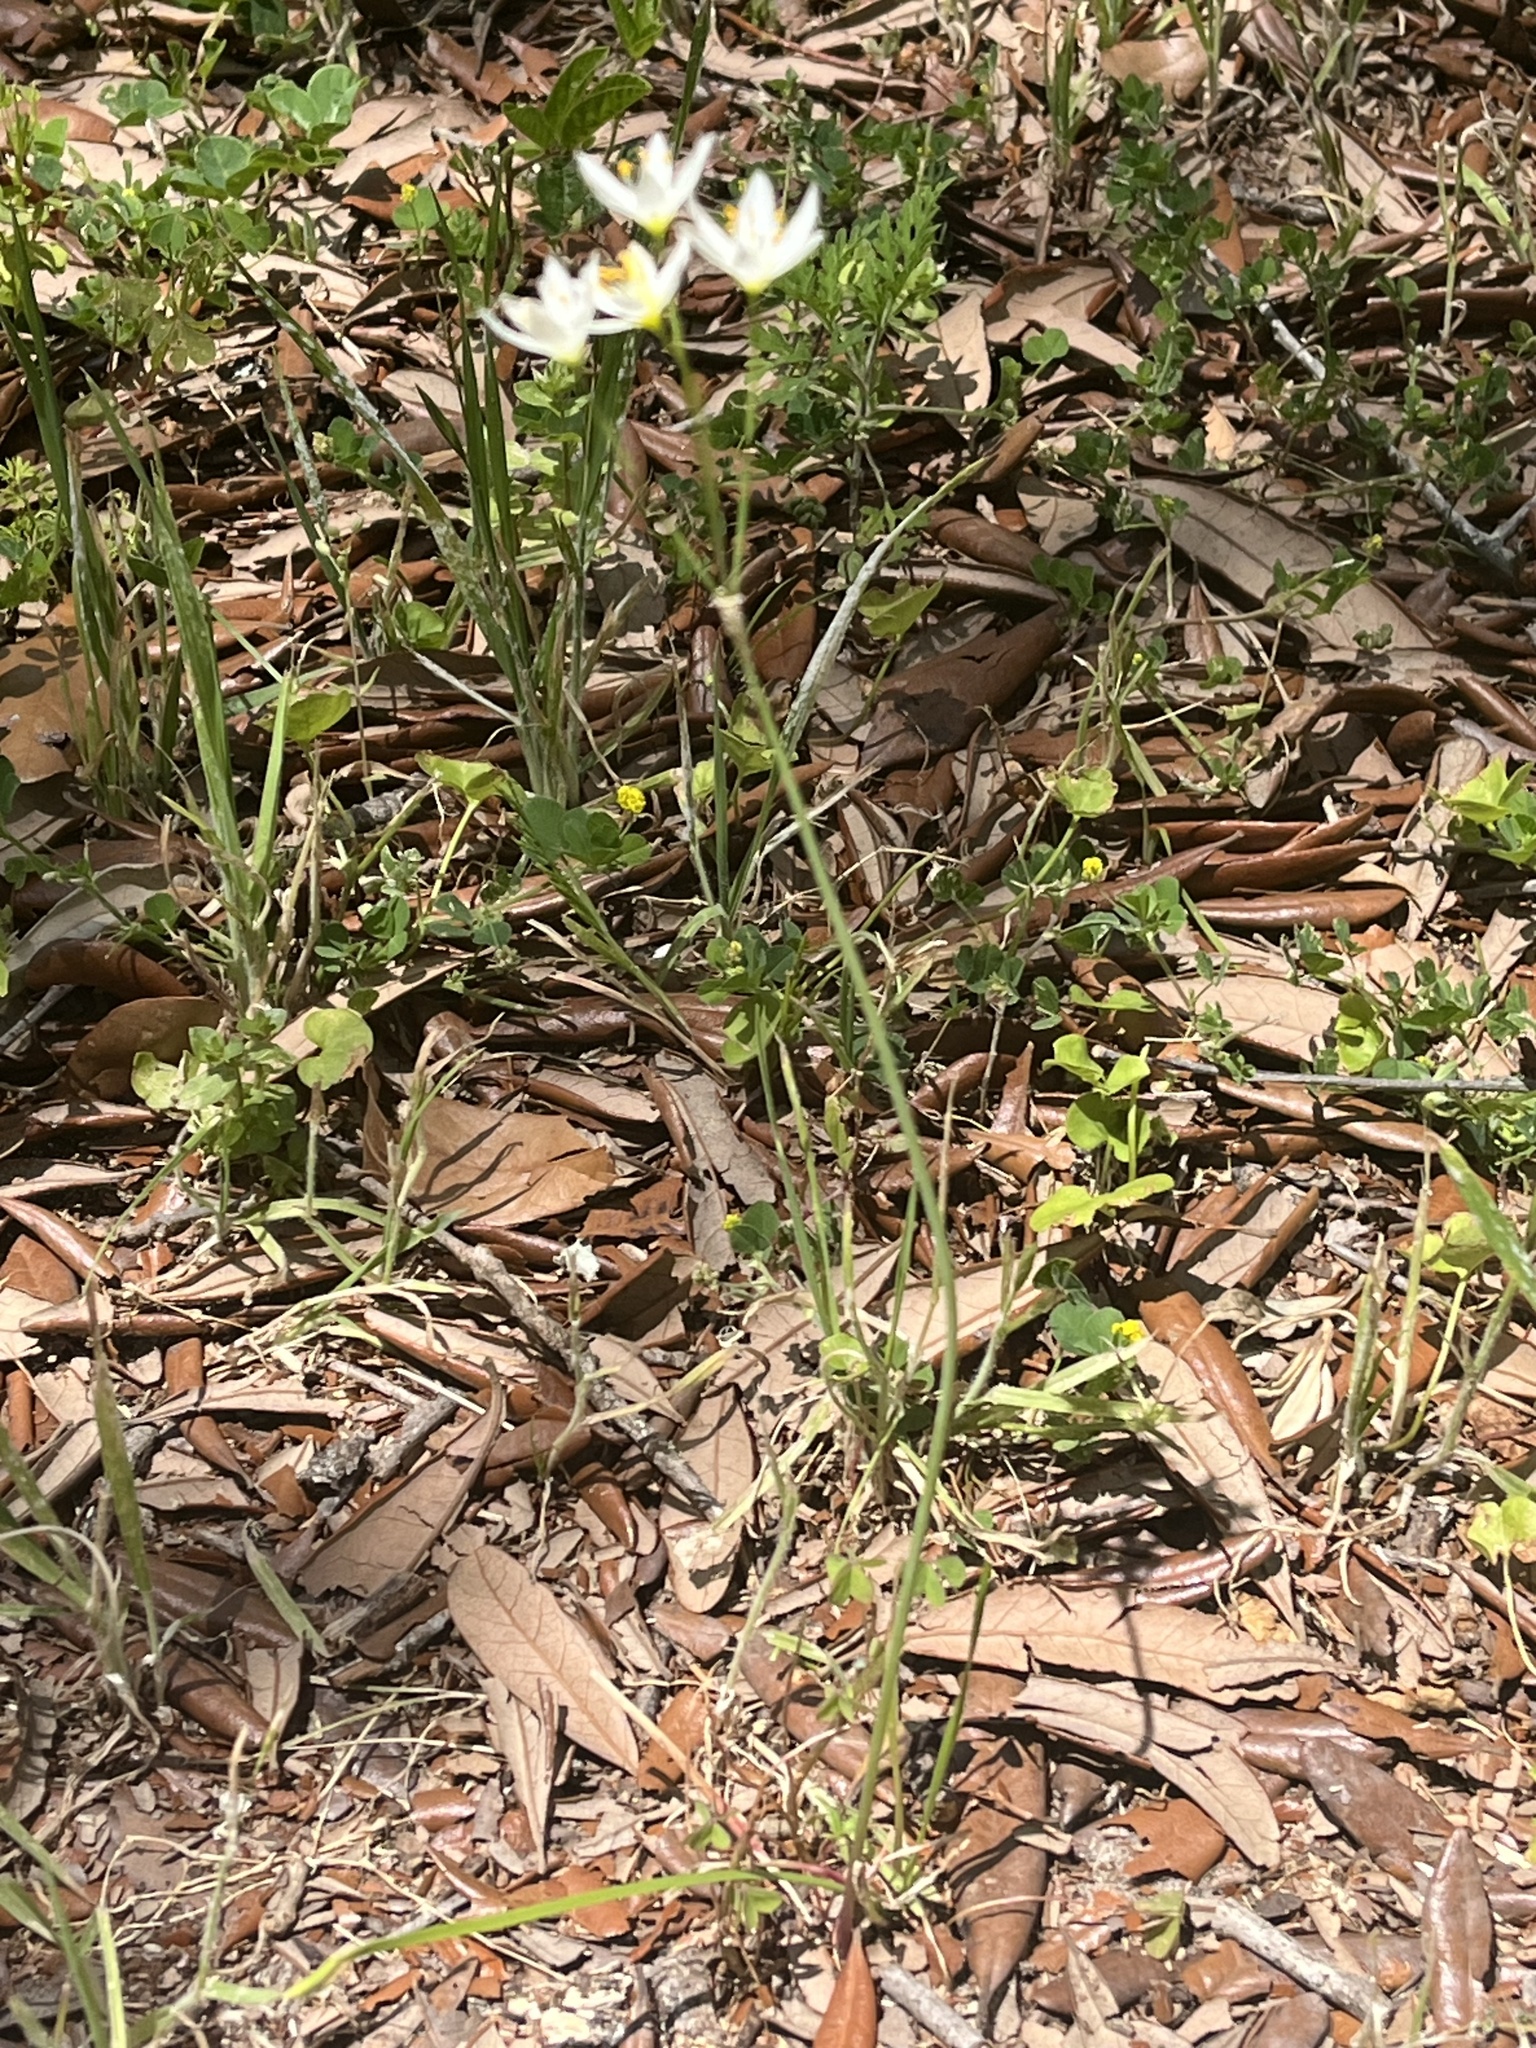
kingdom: Plantae
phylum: Tracheophyta
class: Liliopsida
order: Asparagales
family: Amaryllidaceae
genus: Nothoscordum
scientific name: Nothoscordum bivalve
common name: Crow-poison
